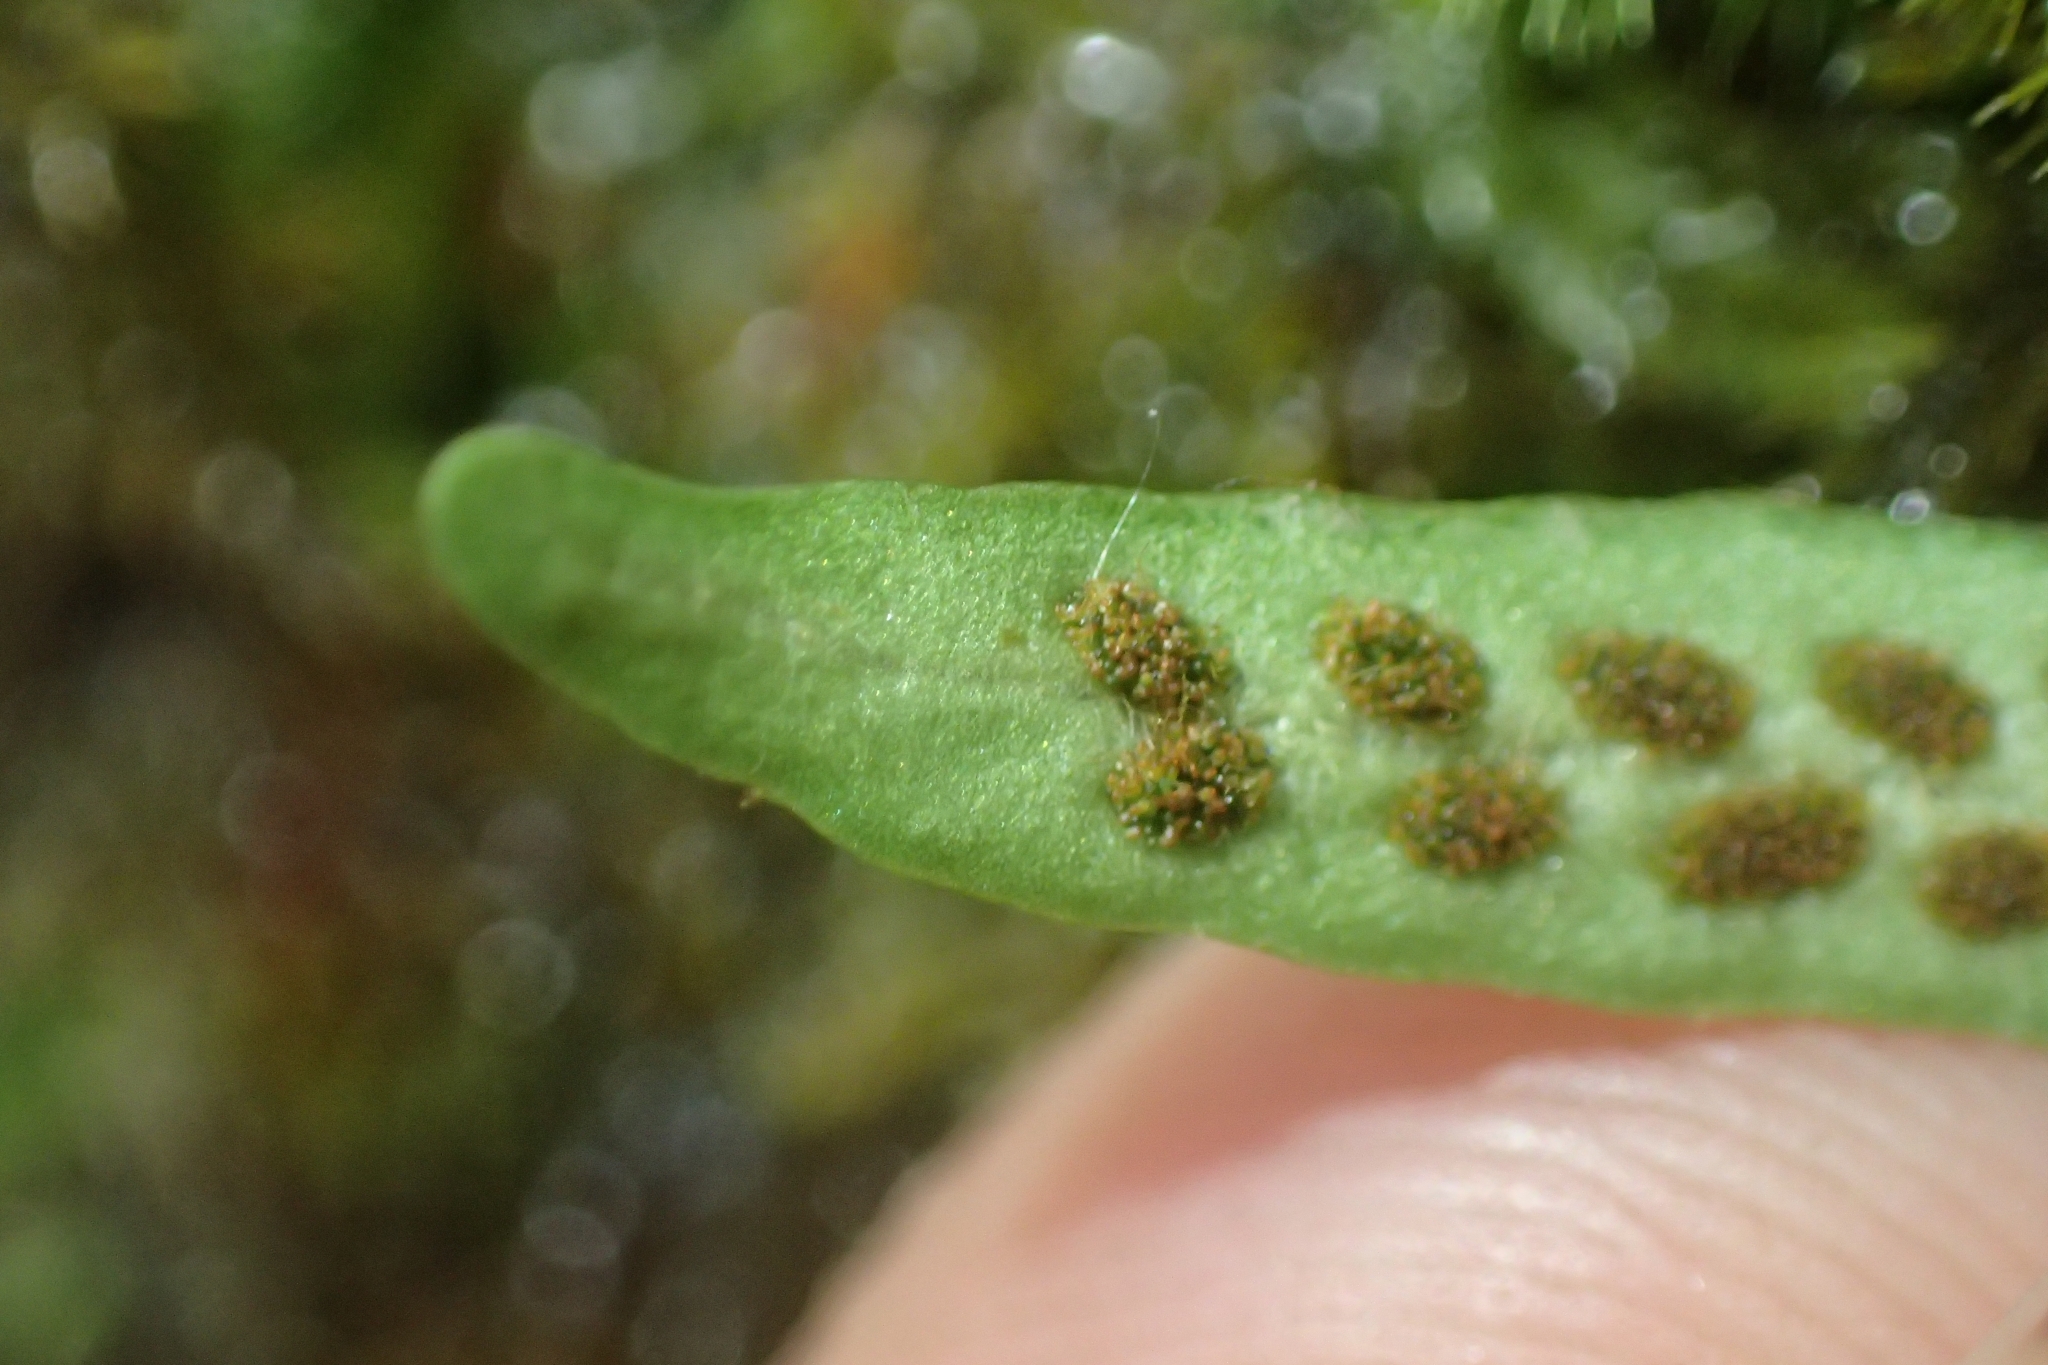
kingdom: Plantae
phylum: Tracheophyta
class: Polypodiopsida
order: Polypodiales
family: Polypodiaceae
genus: Notogrammitis
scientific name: Notogrammitis ciliata
